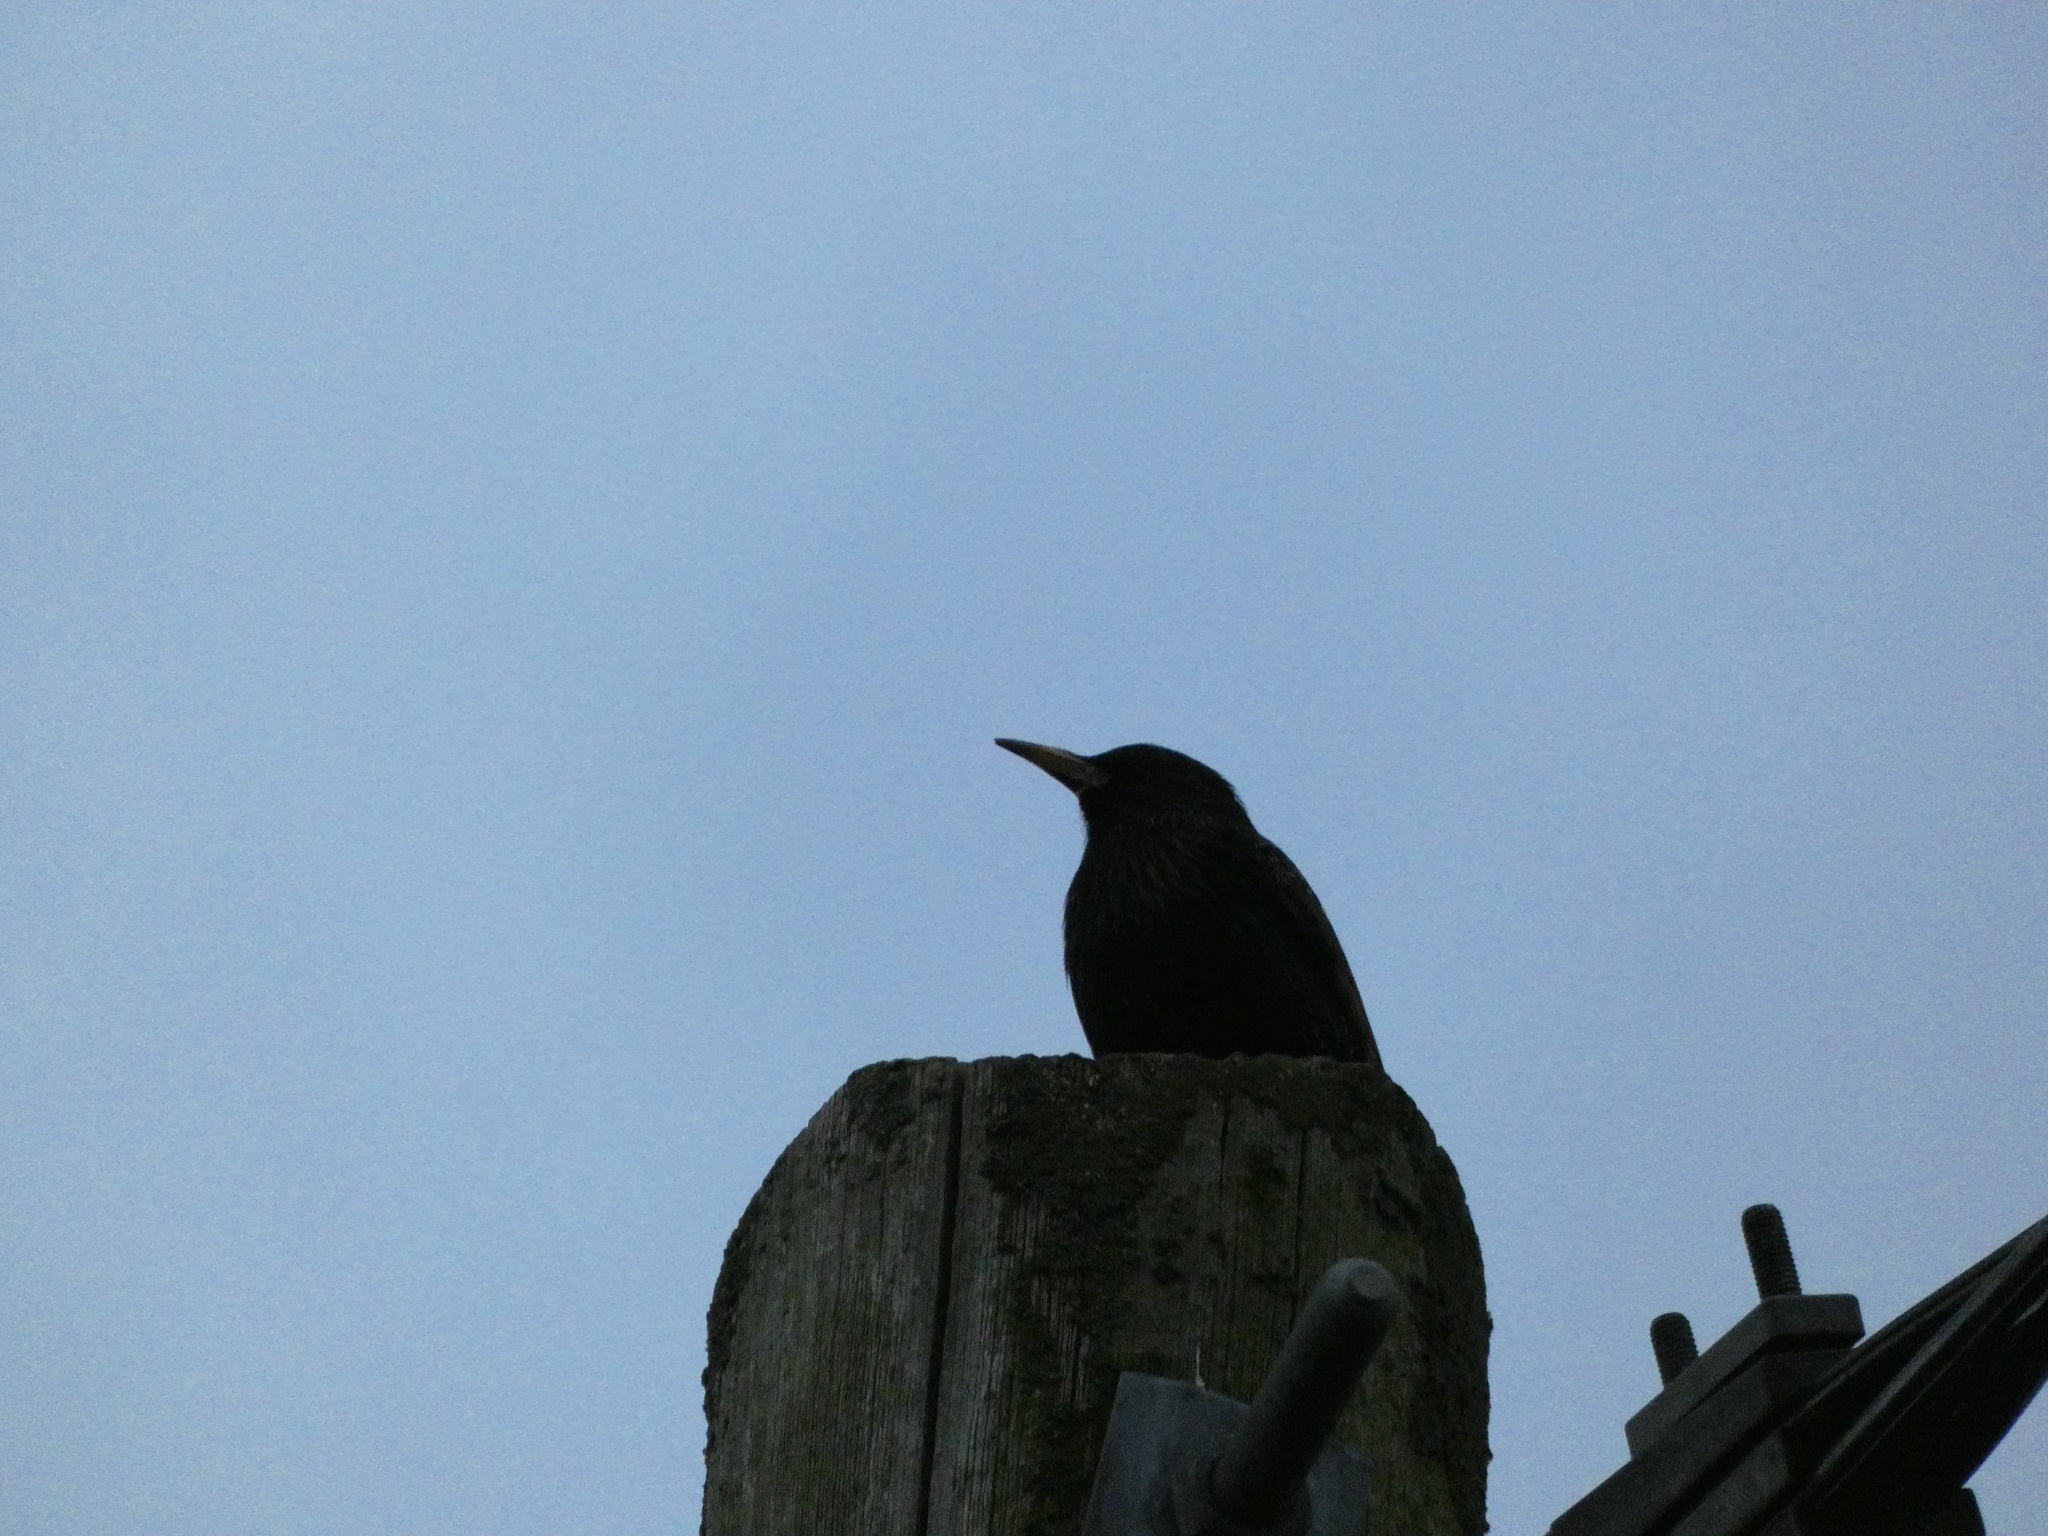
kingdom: Animalia
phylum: Chordata
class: Aves
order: Passeriformes
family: Sturnidae
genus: Sturnus
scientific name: Sturnus vulgaris
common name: Common starling
